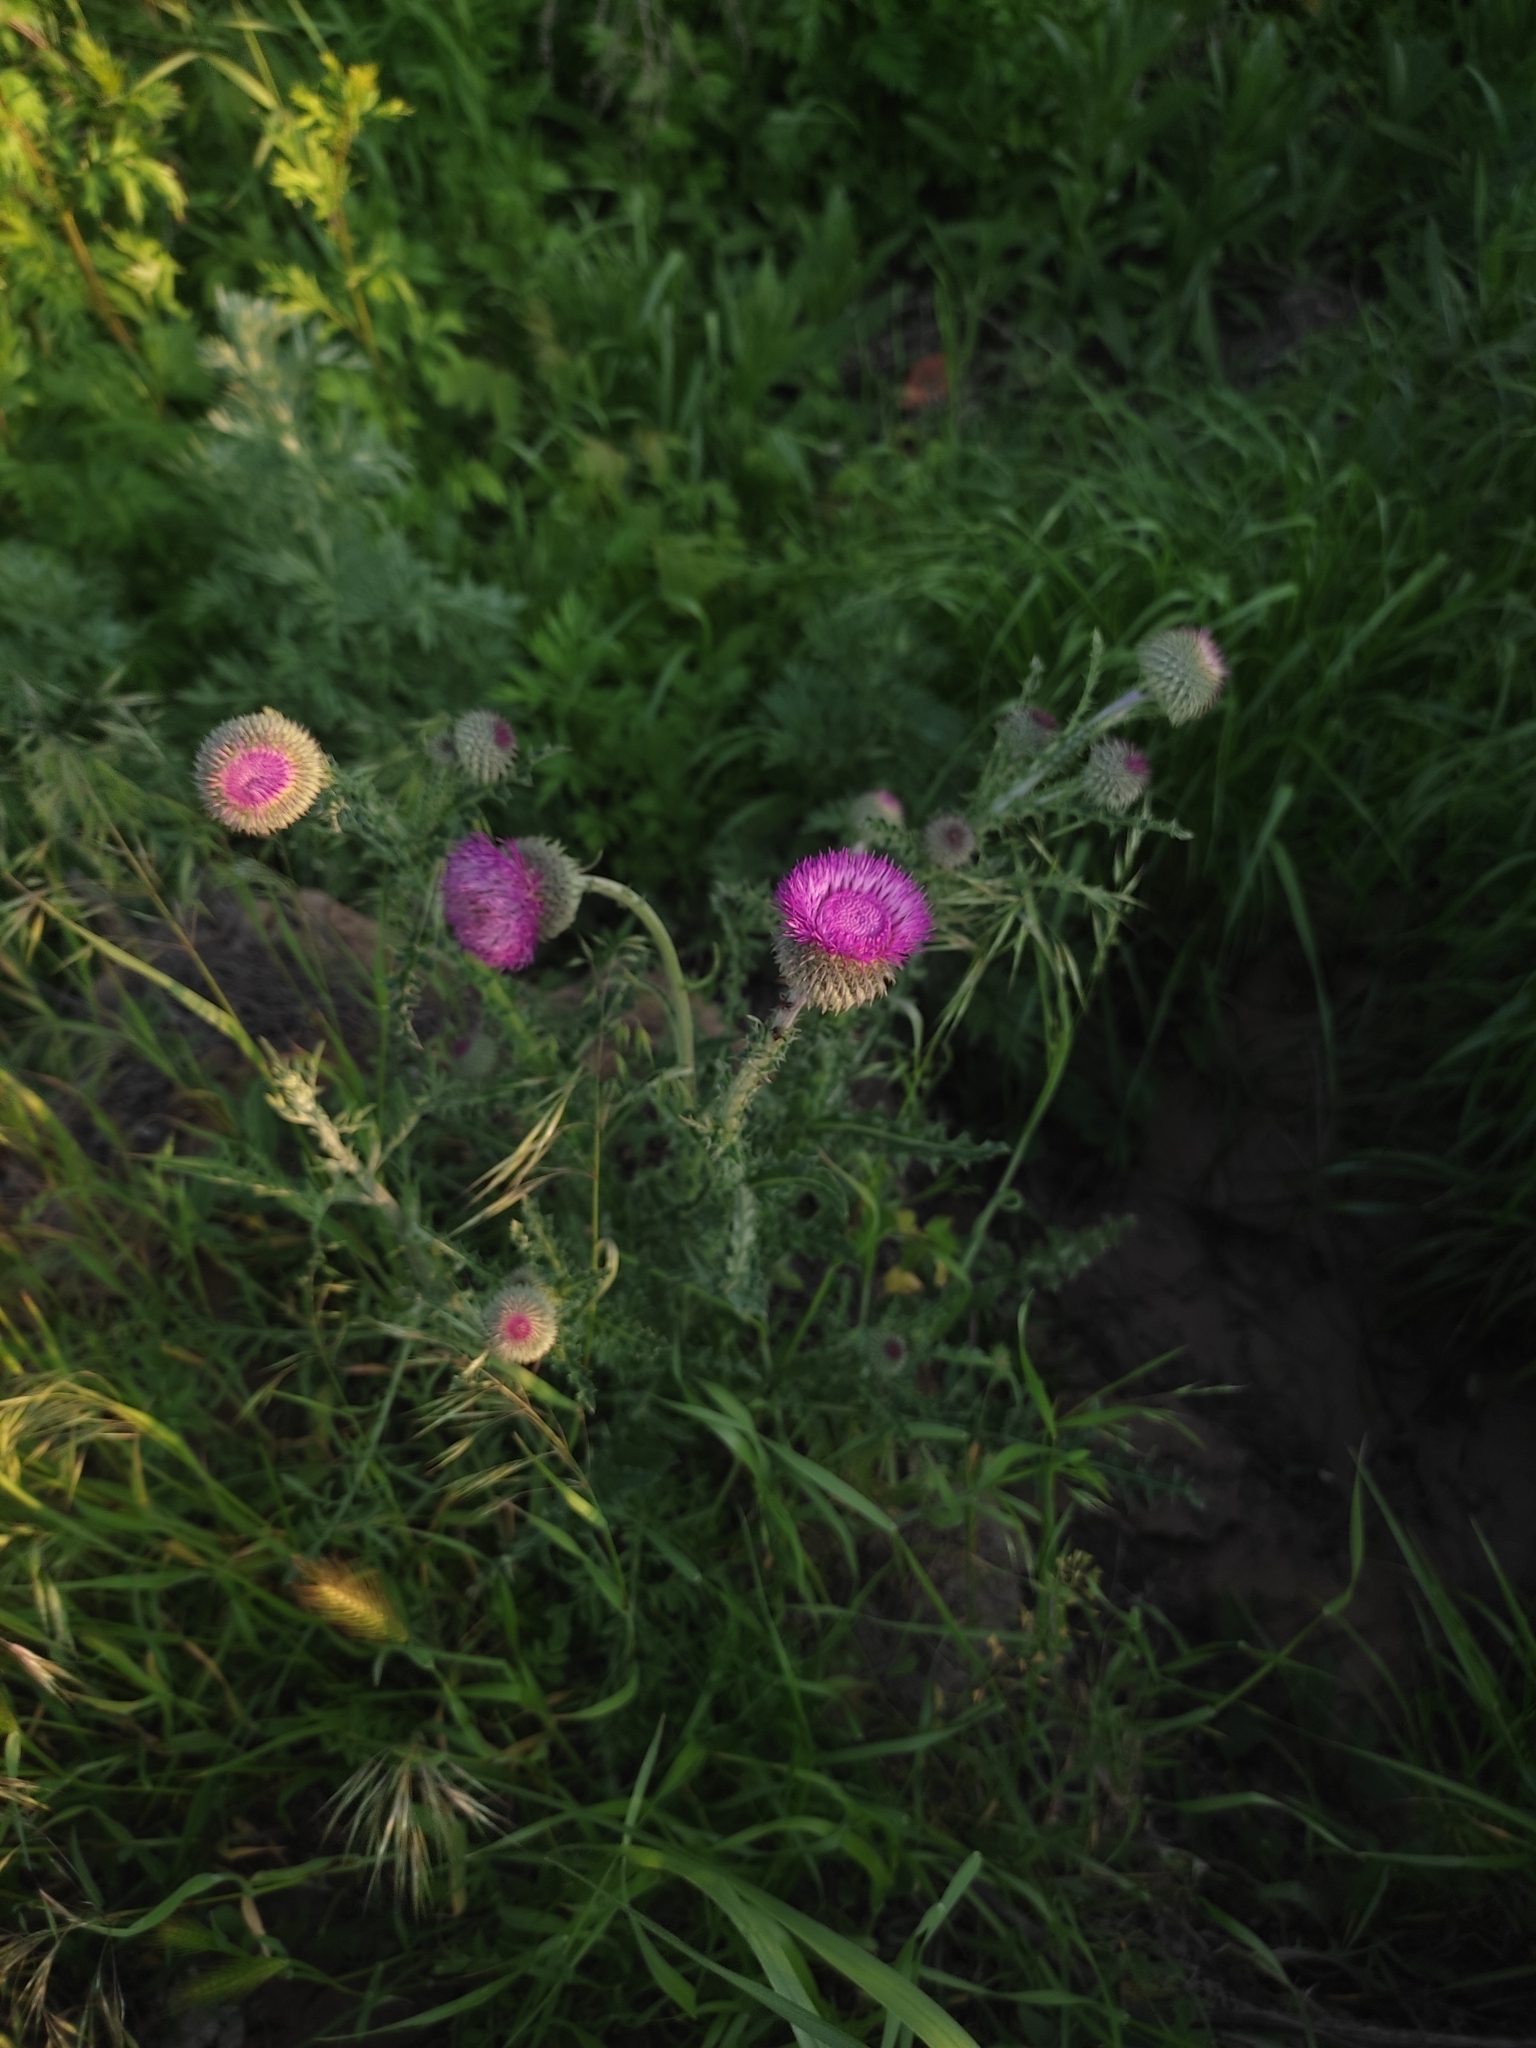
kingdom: Plantae
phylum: Tracheophyta
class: Magnoliopsida
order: Asterales
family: Asteraceae
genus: Carduus
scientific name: Carduus uncinatus
